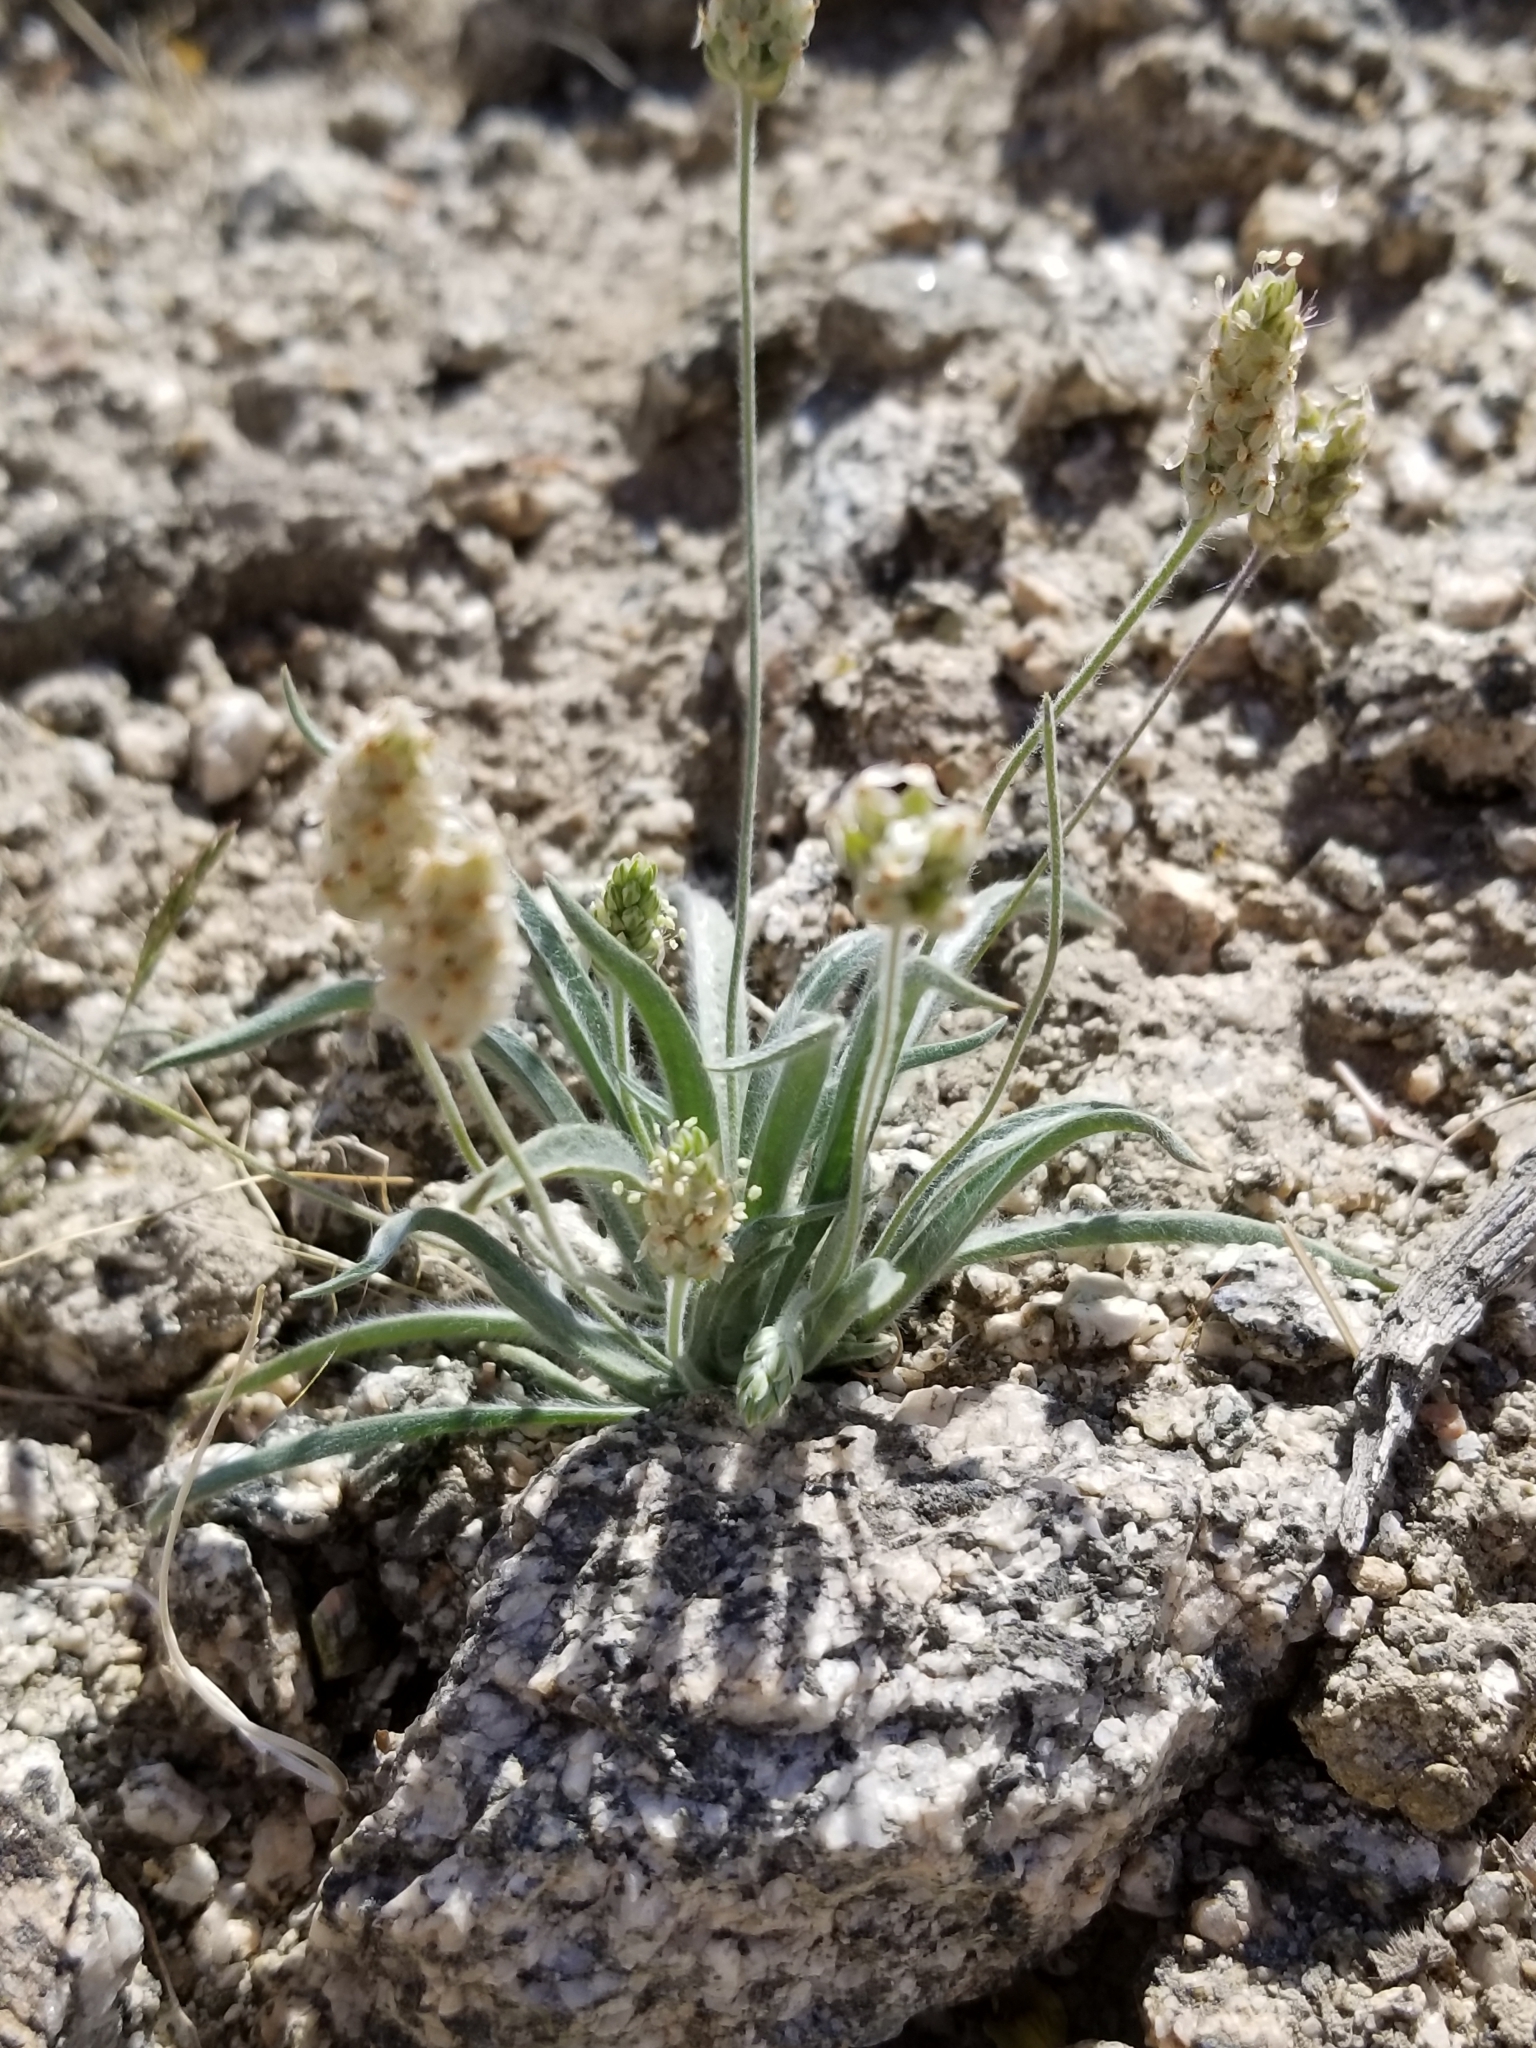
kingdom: Plantae
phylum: Tracheophyta
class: Magnoliopsida
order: Lamiales
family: Plantaginaceae
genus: Plantago
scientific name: Plantago ovata
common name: Blond plantain
